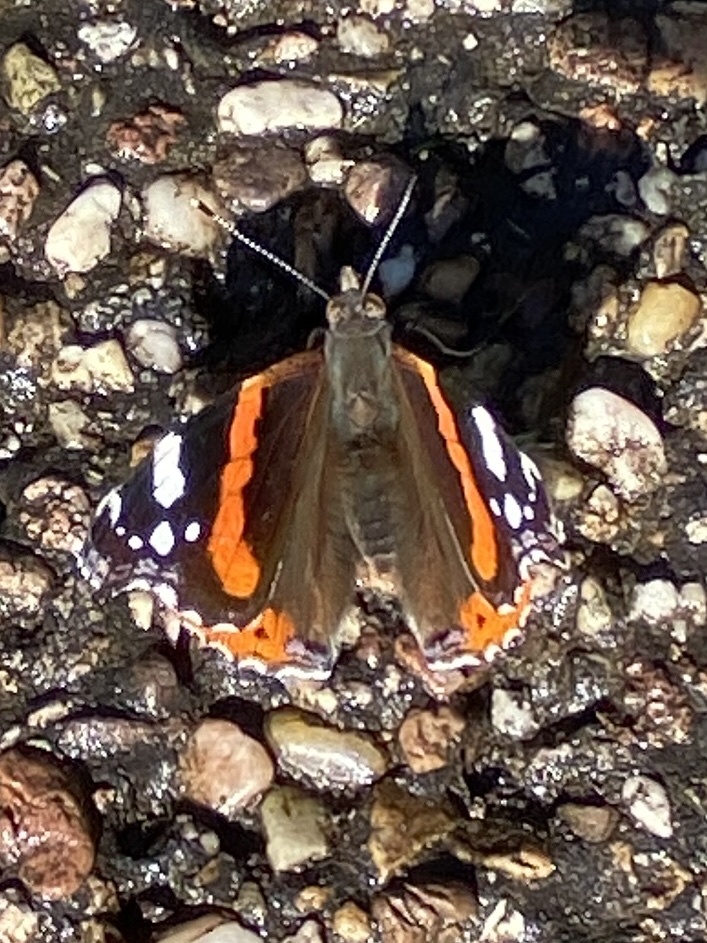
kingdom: Animalia
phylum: Arthropoda
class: Insecta
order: Lepidoptera
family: Nymphalidae
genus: Vanessa
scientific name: Vanessa atalanta
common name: Red admiral
